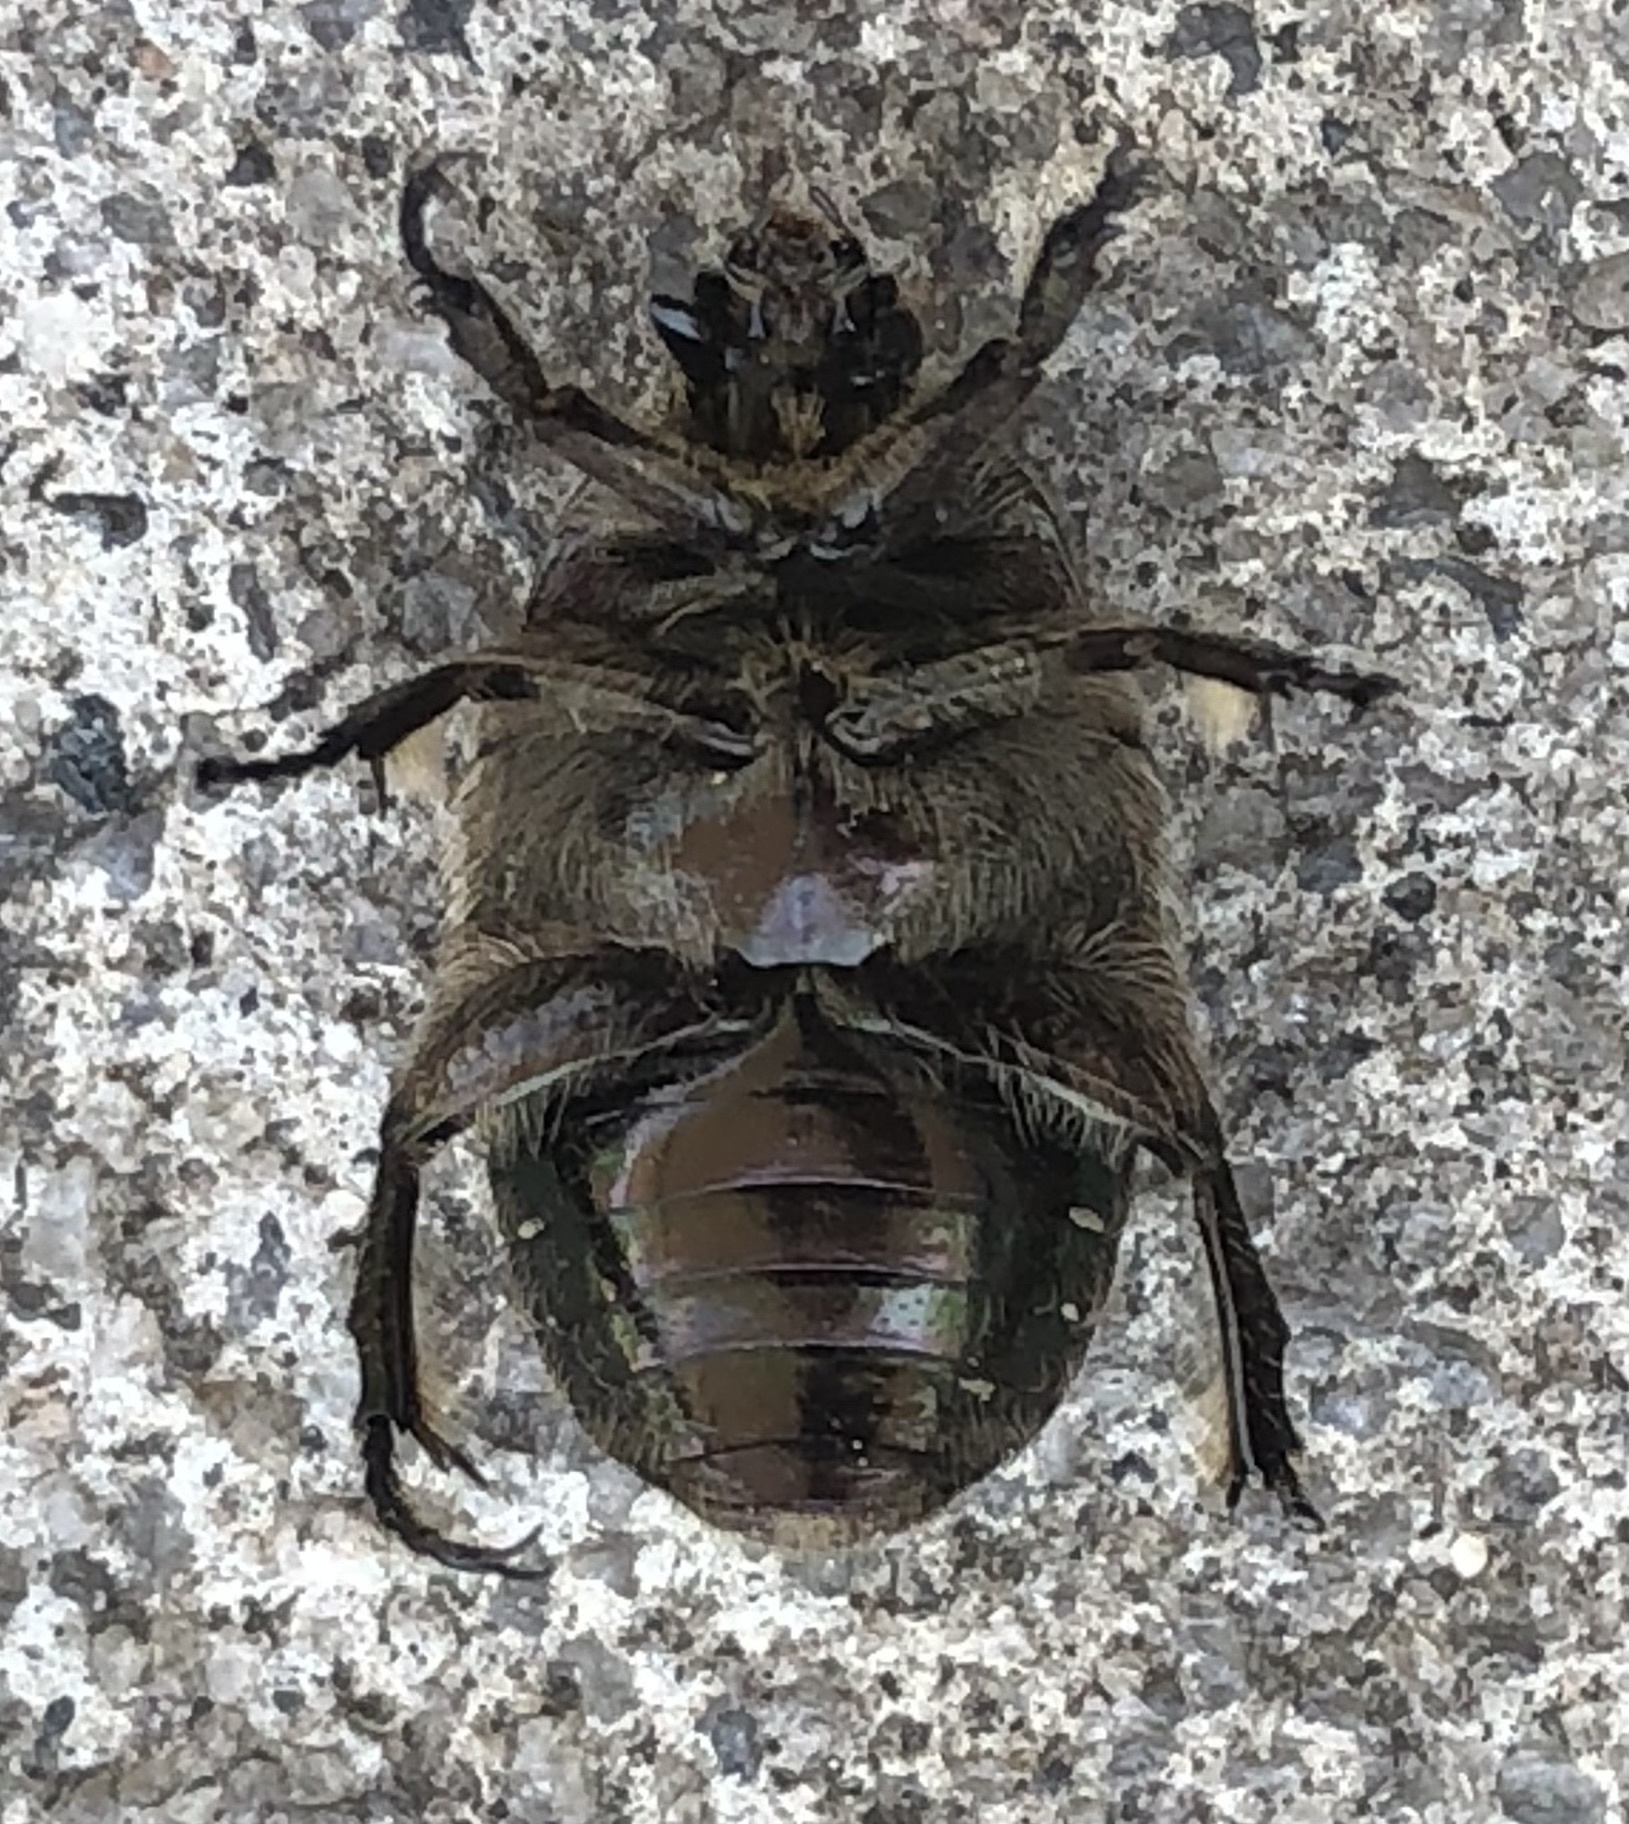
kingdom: Animalia
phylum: Arthropoda
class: Insecta
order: Coleoptera
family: Scarabaeidae
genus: Euphoria
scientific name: Euphoria sepulcralis
